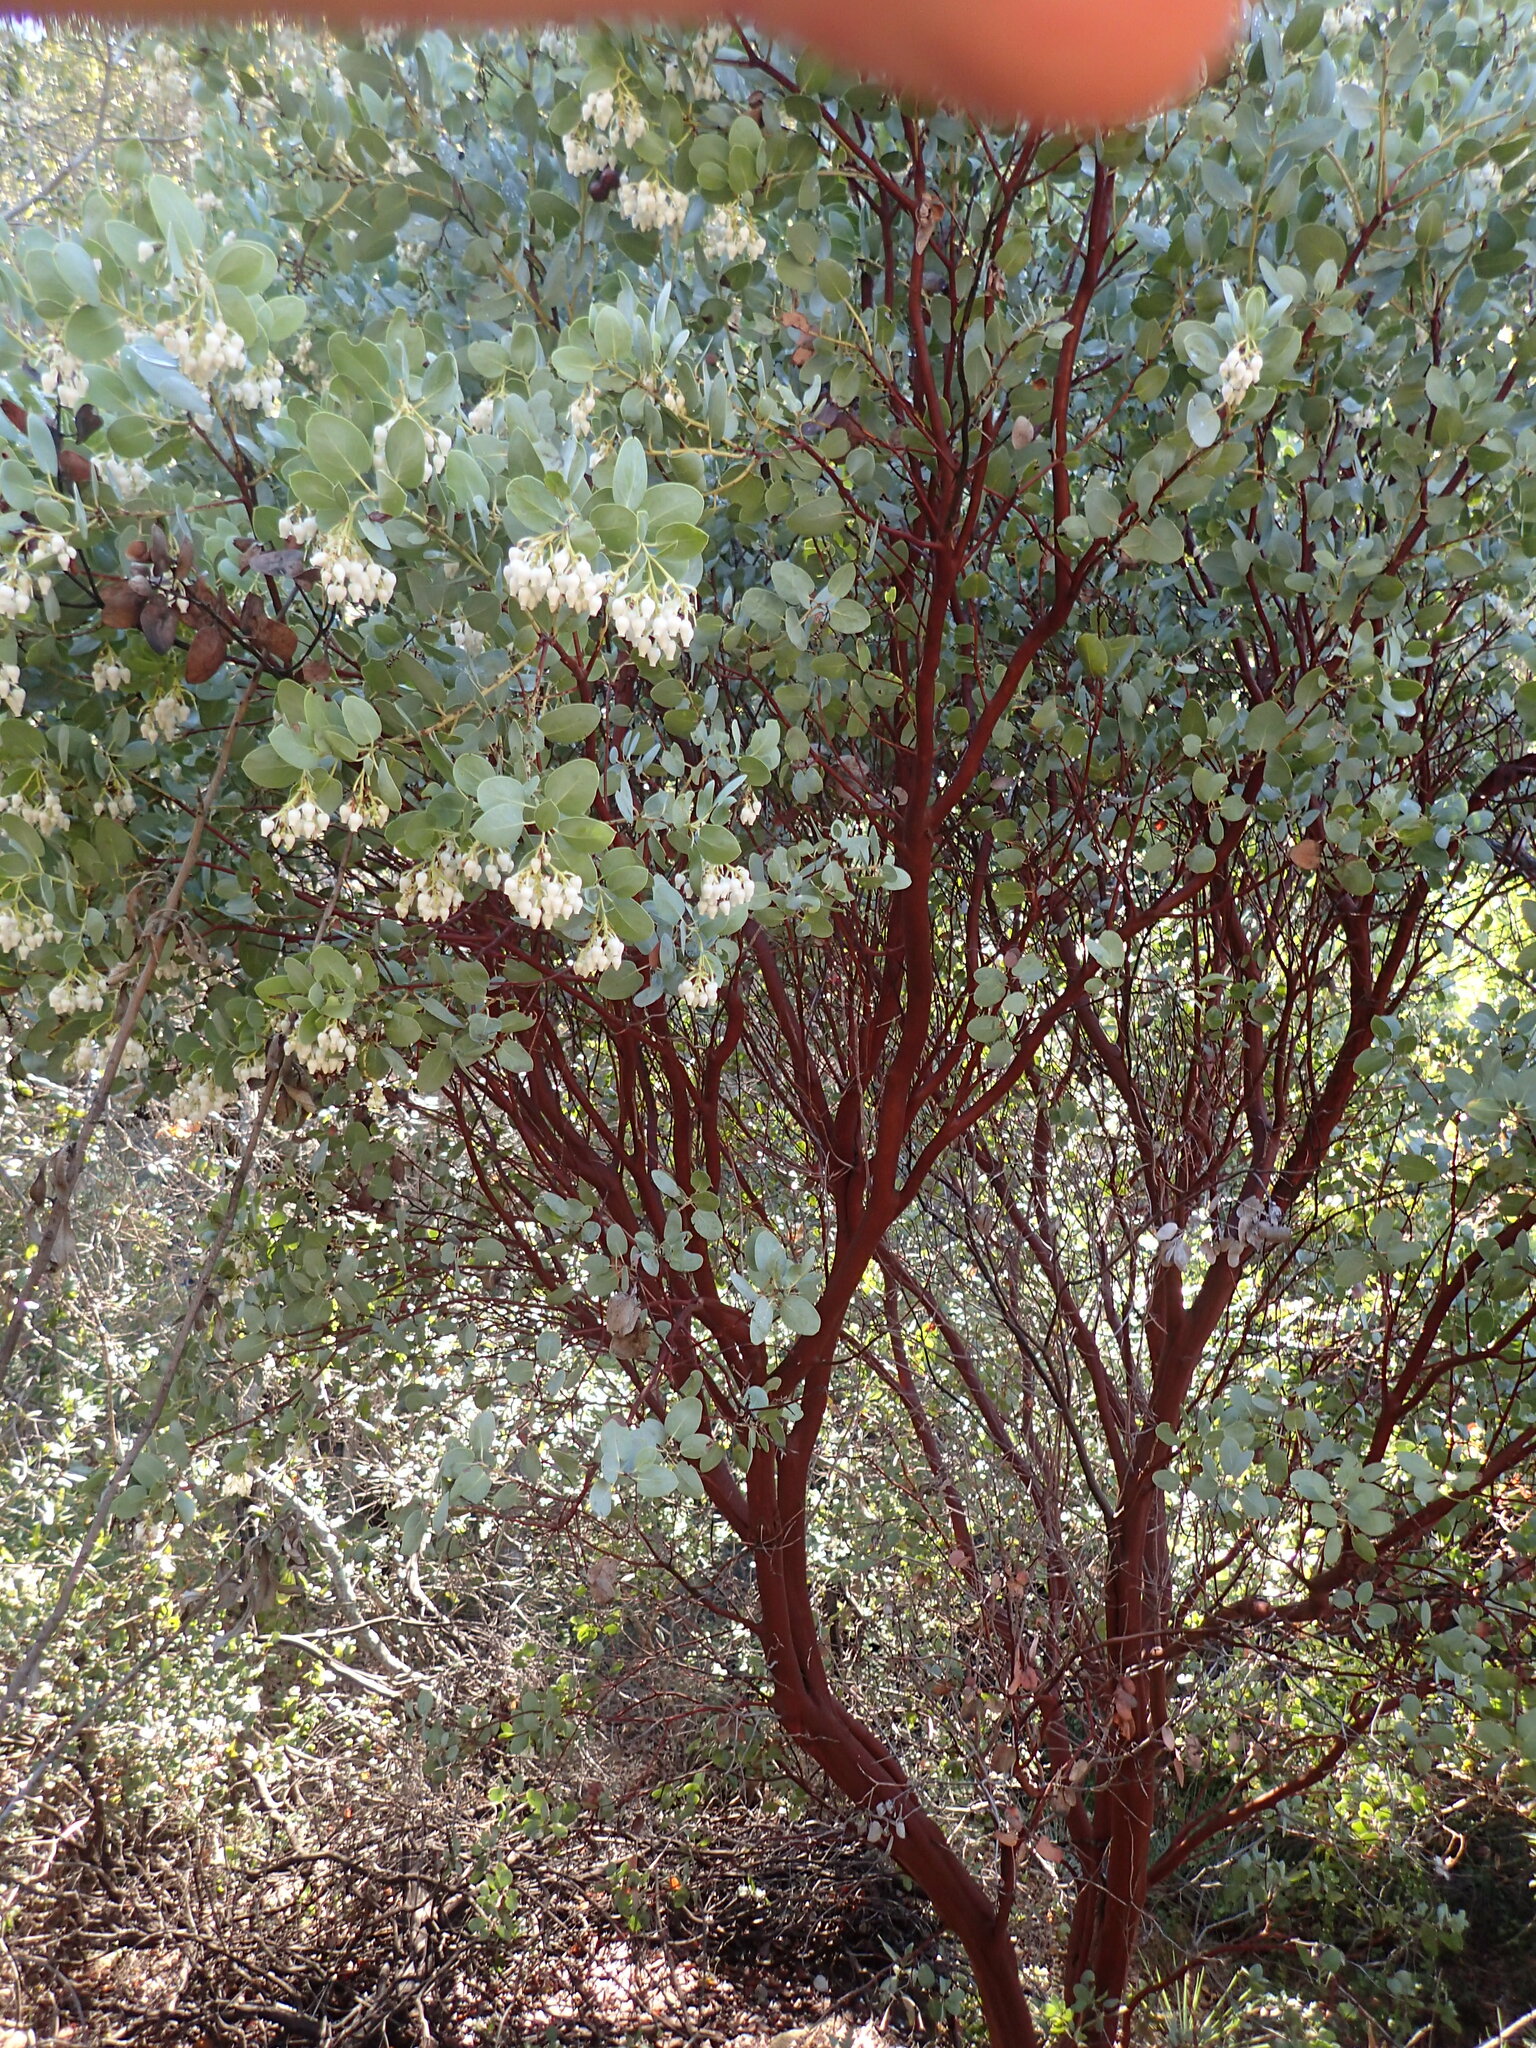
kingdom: Plantae
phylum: Tracheophyta
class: Magnoliopsida
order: Ericales
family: Ericaceae
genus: Arctostaphylos
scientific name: Arctostaphylos glauca
